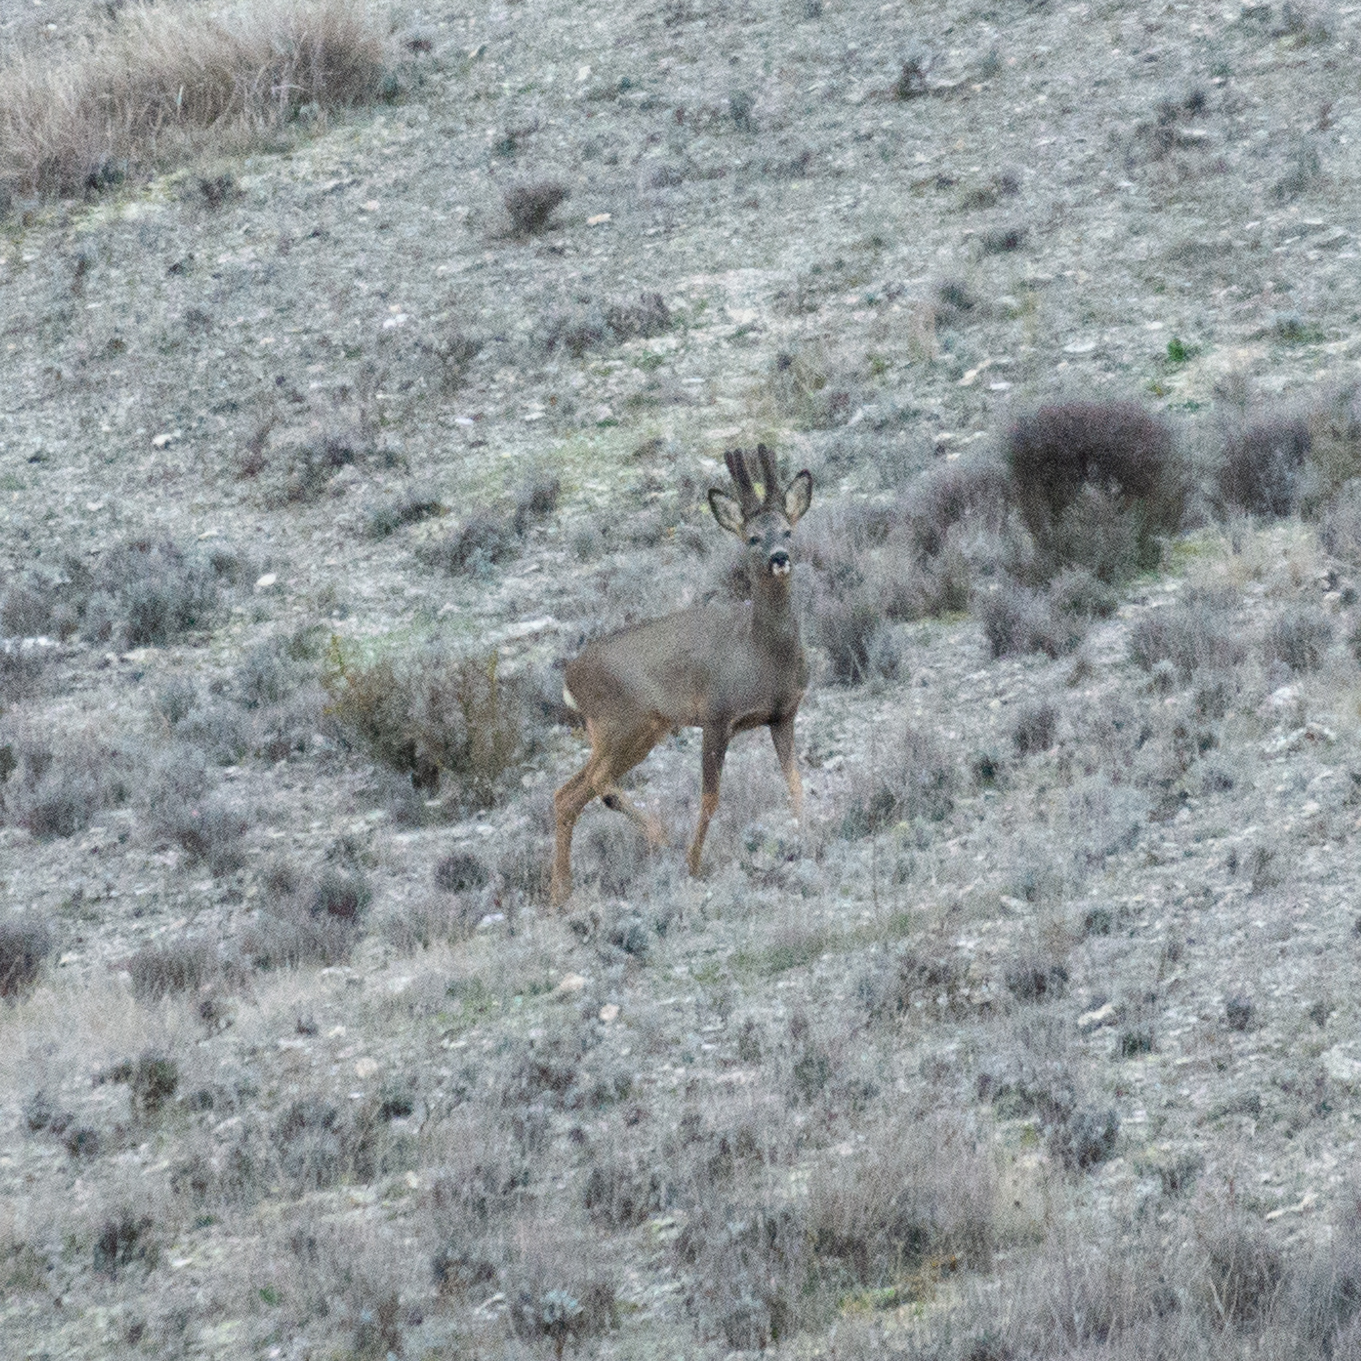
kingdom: Animalia
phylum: Chordata
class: Mammalia
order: Artiodactyla
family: Cervidae
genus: Capreolus
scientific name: Capreolus capreolus
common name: Western roe deer
